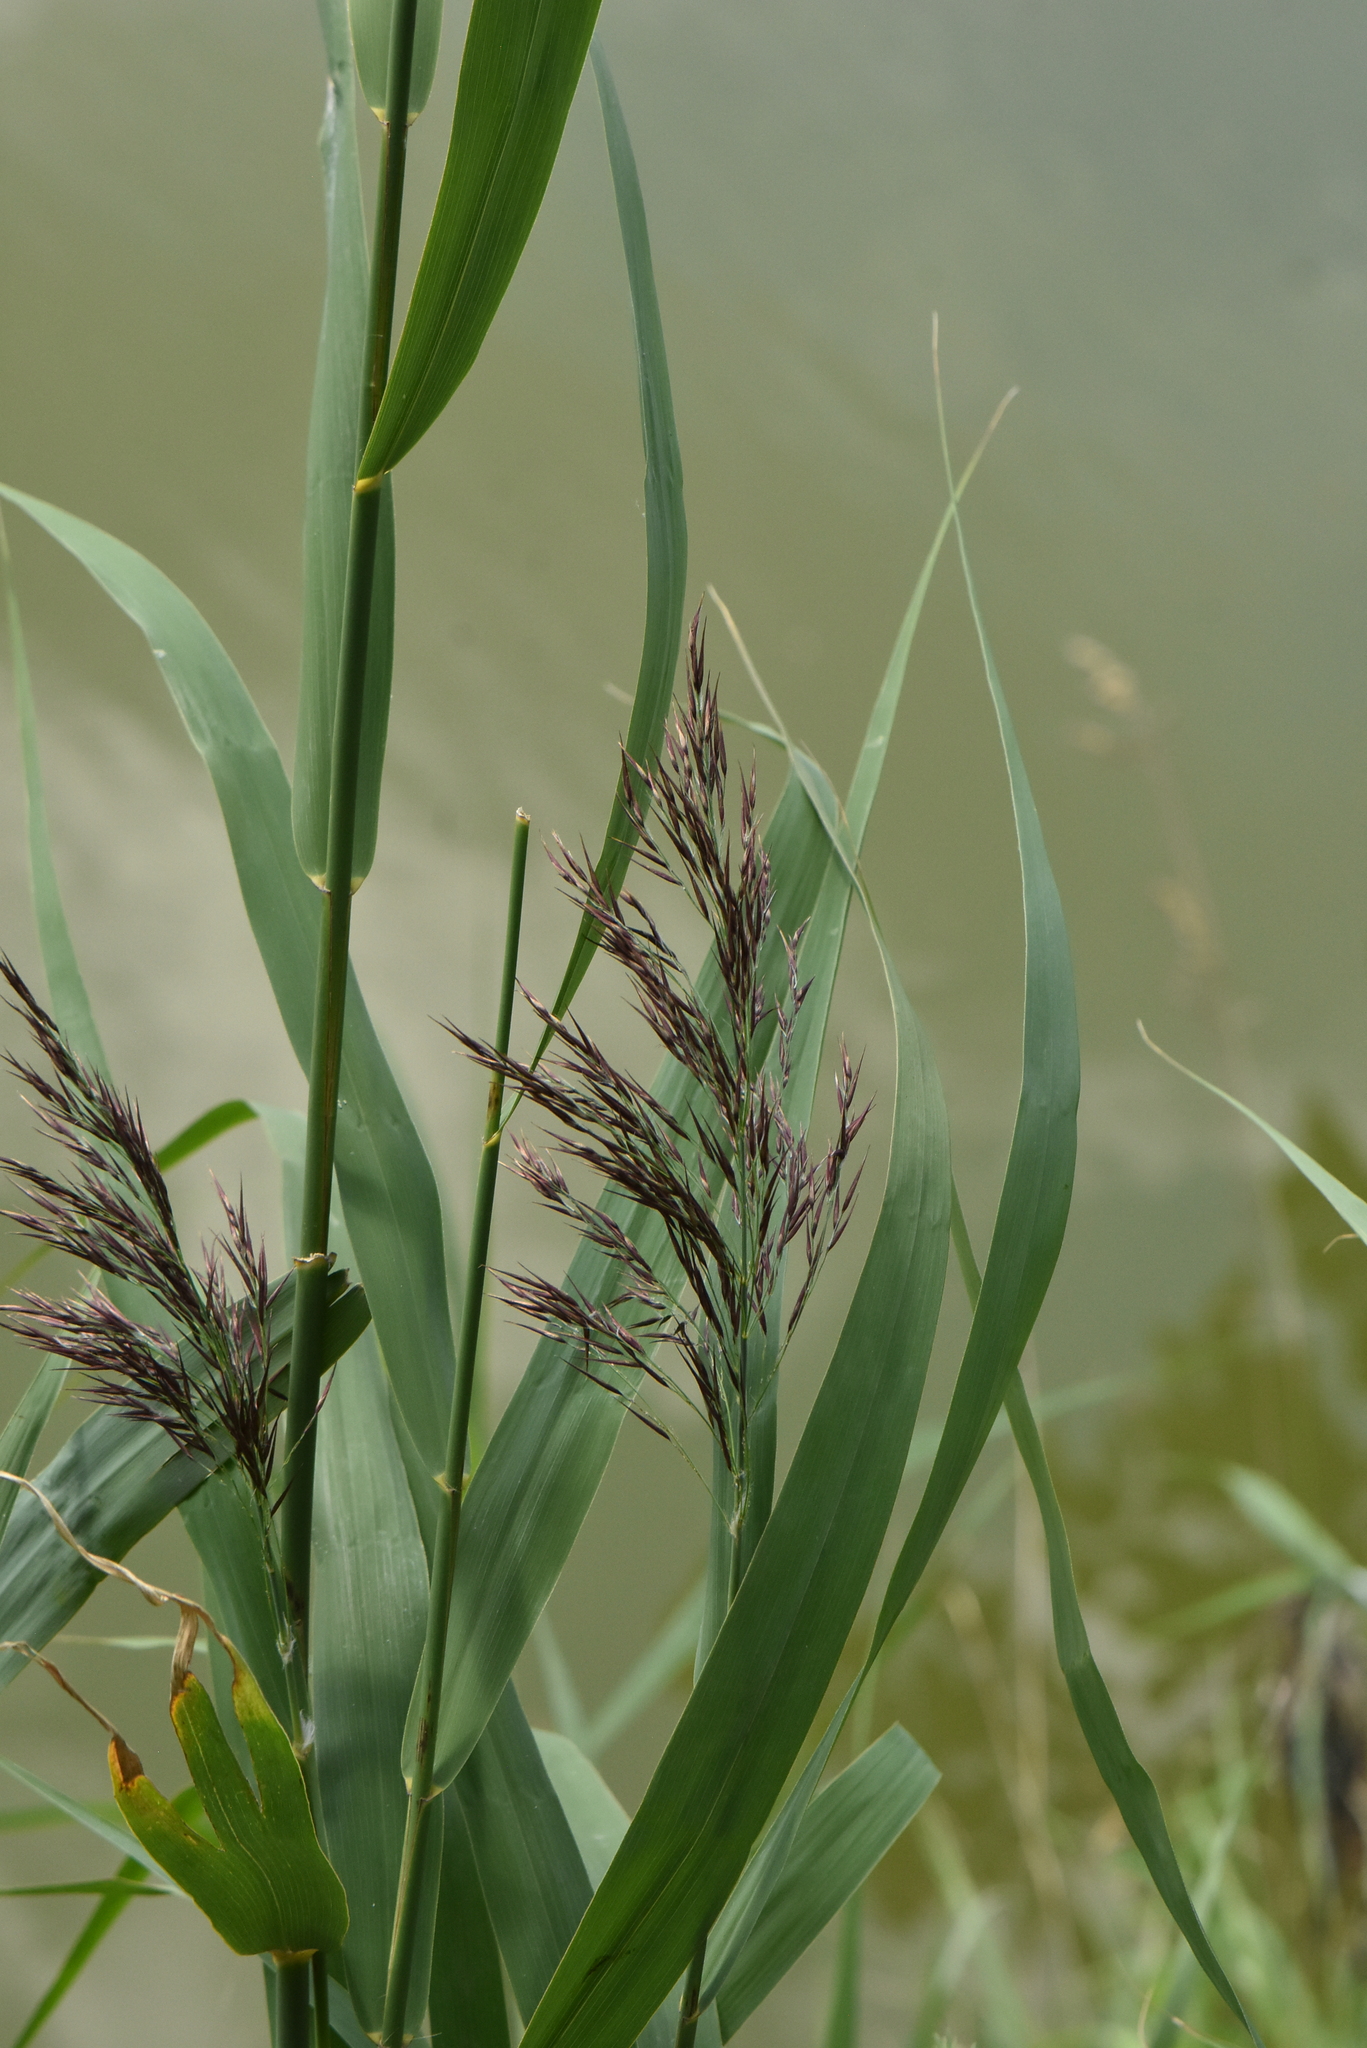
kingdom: Plantae
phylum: Tracheophyta
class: Liliopsida
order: Poales
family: Poaceae
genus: Phragmites
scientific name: Phragmites australis
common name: Common reed
